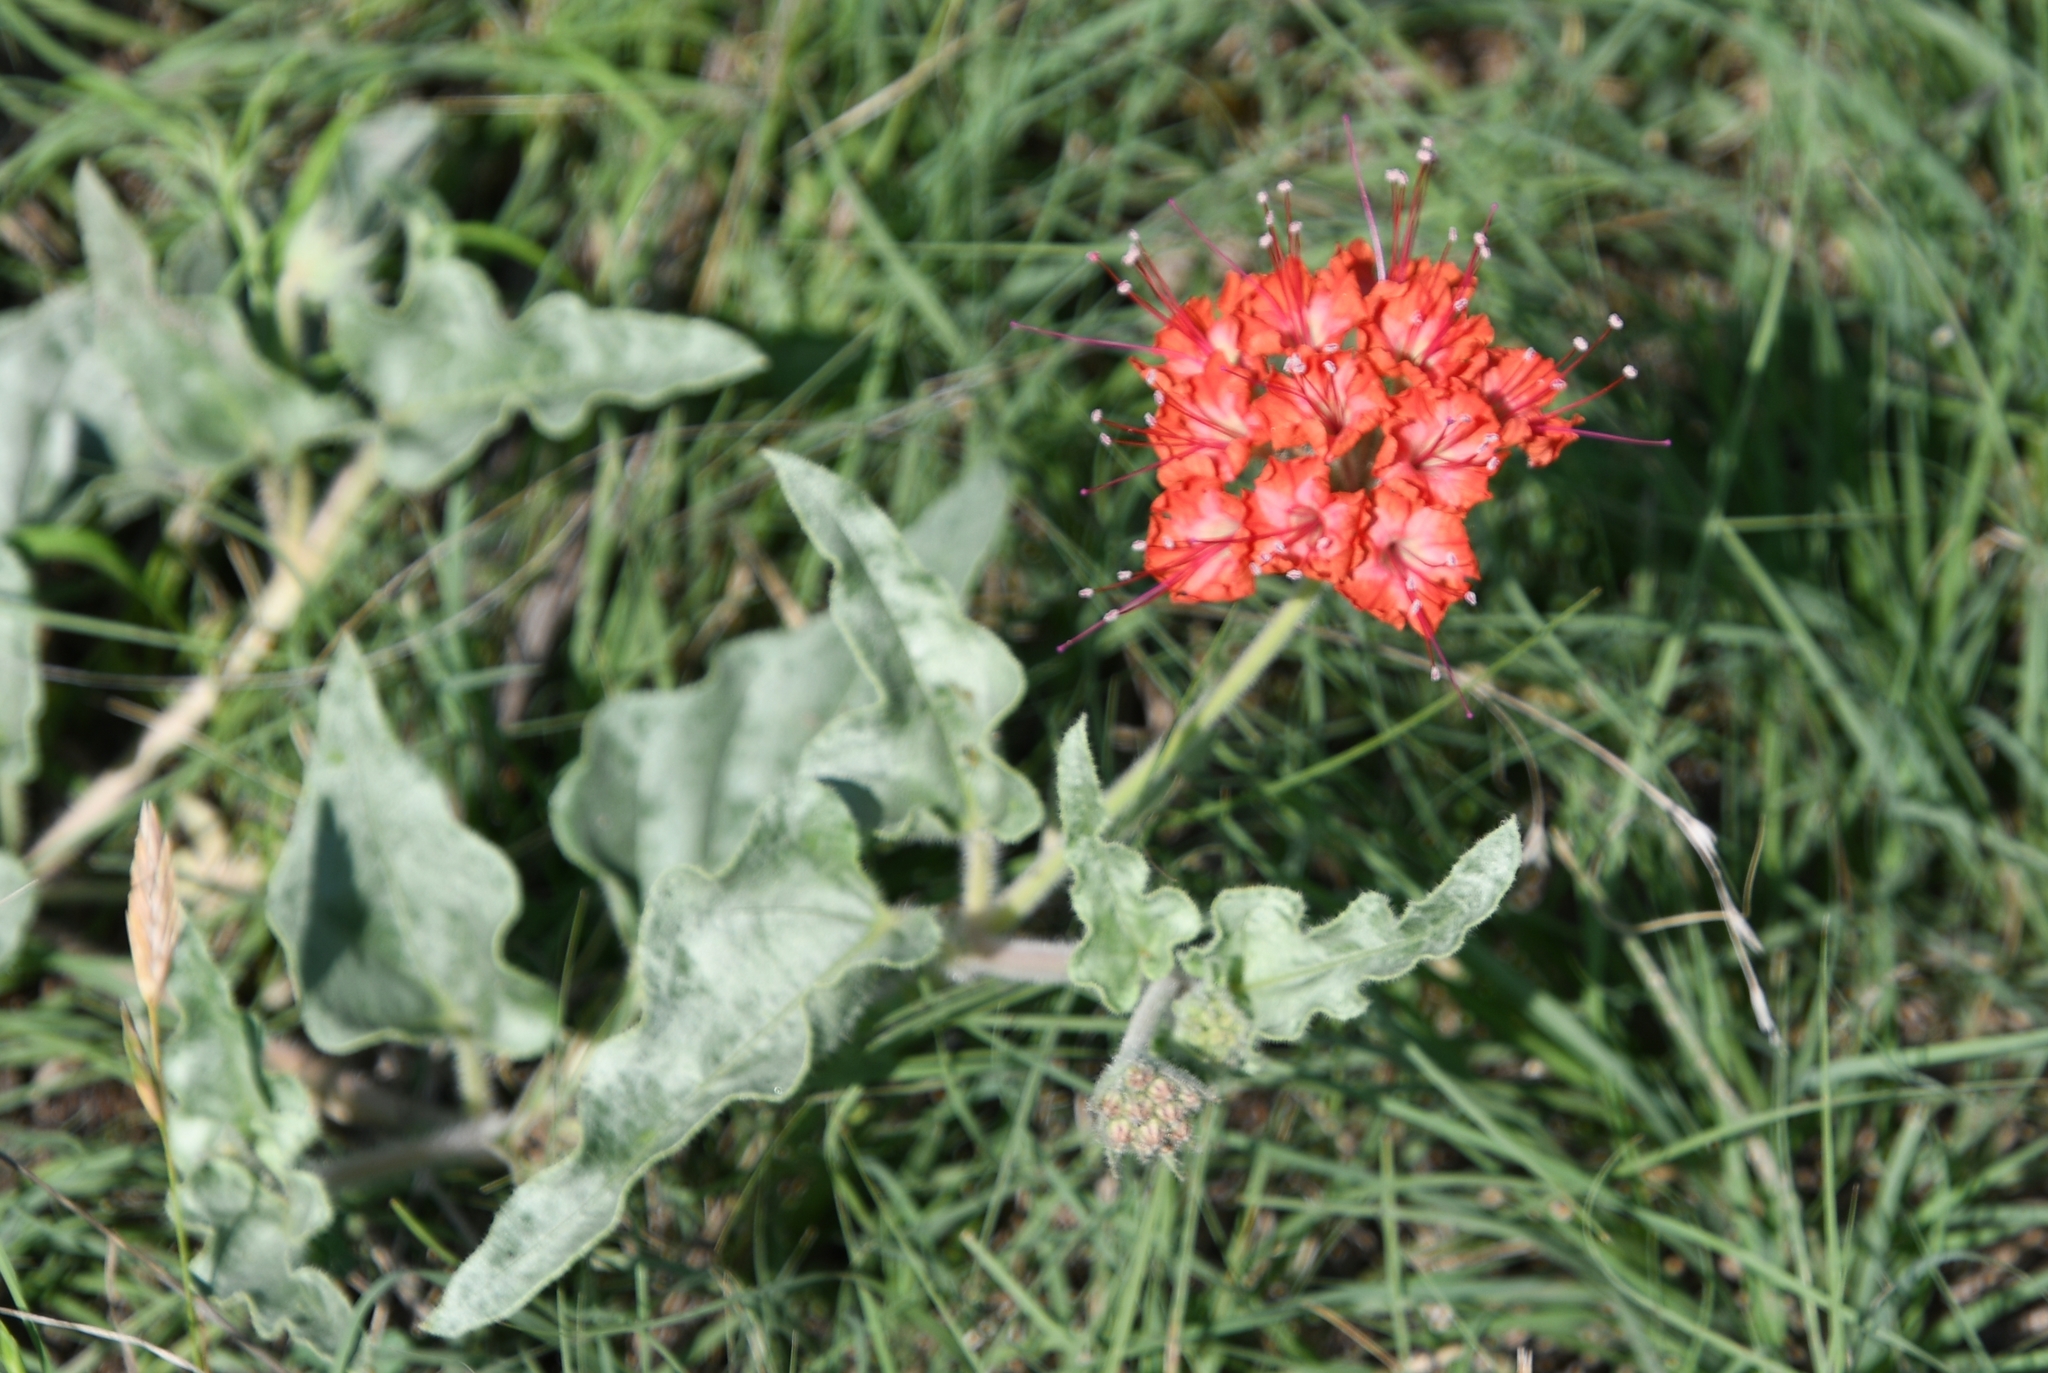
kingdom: Plantae
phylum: Tracheophyta
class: Magnoliopsida
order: Caryophyllales
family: Nyctaginaceae
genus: Nyctaginia
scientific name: Nyctaginia capitata
